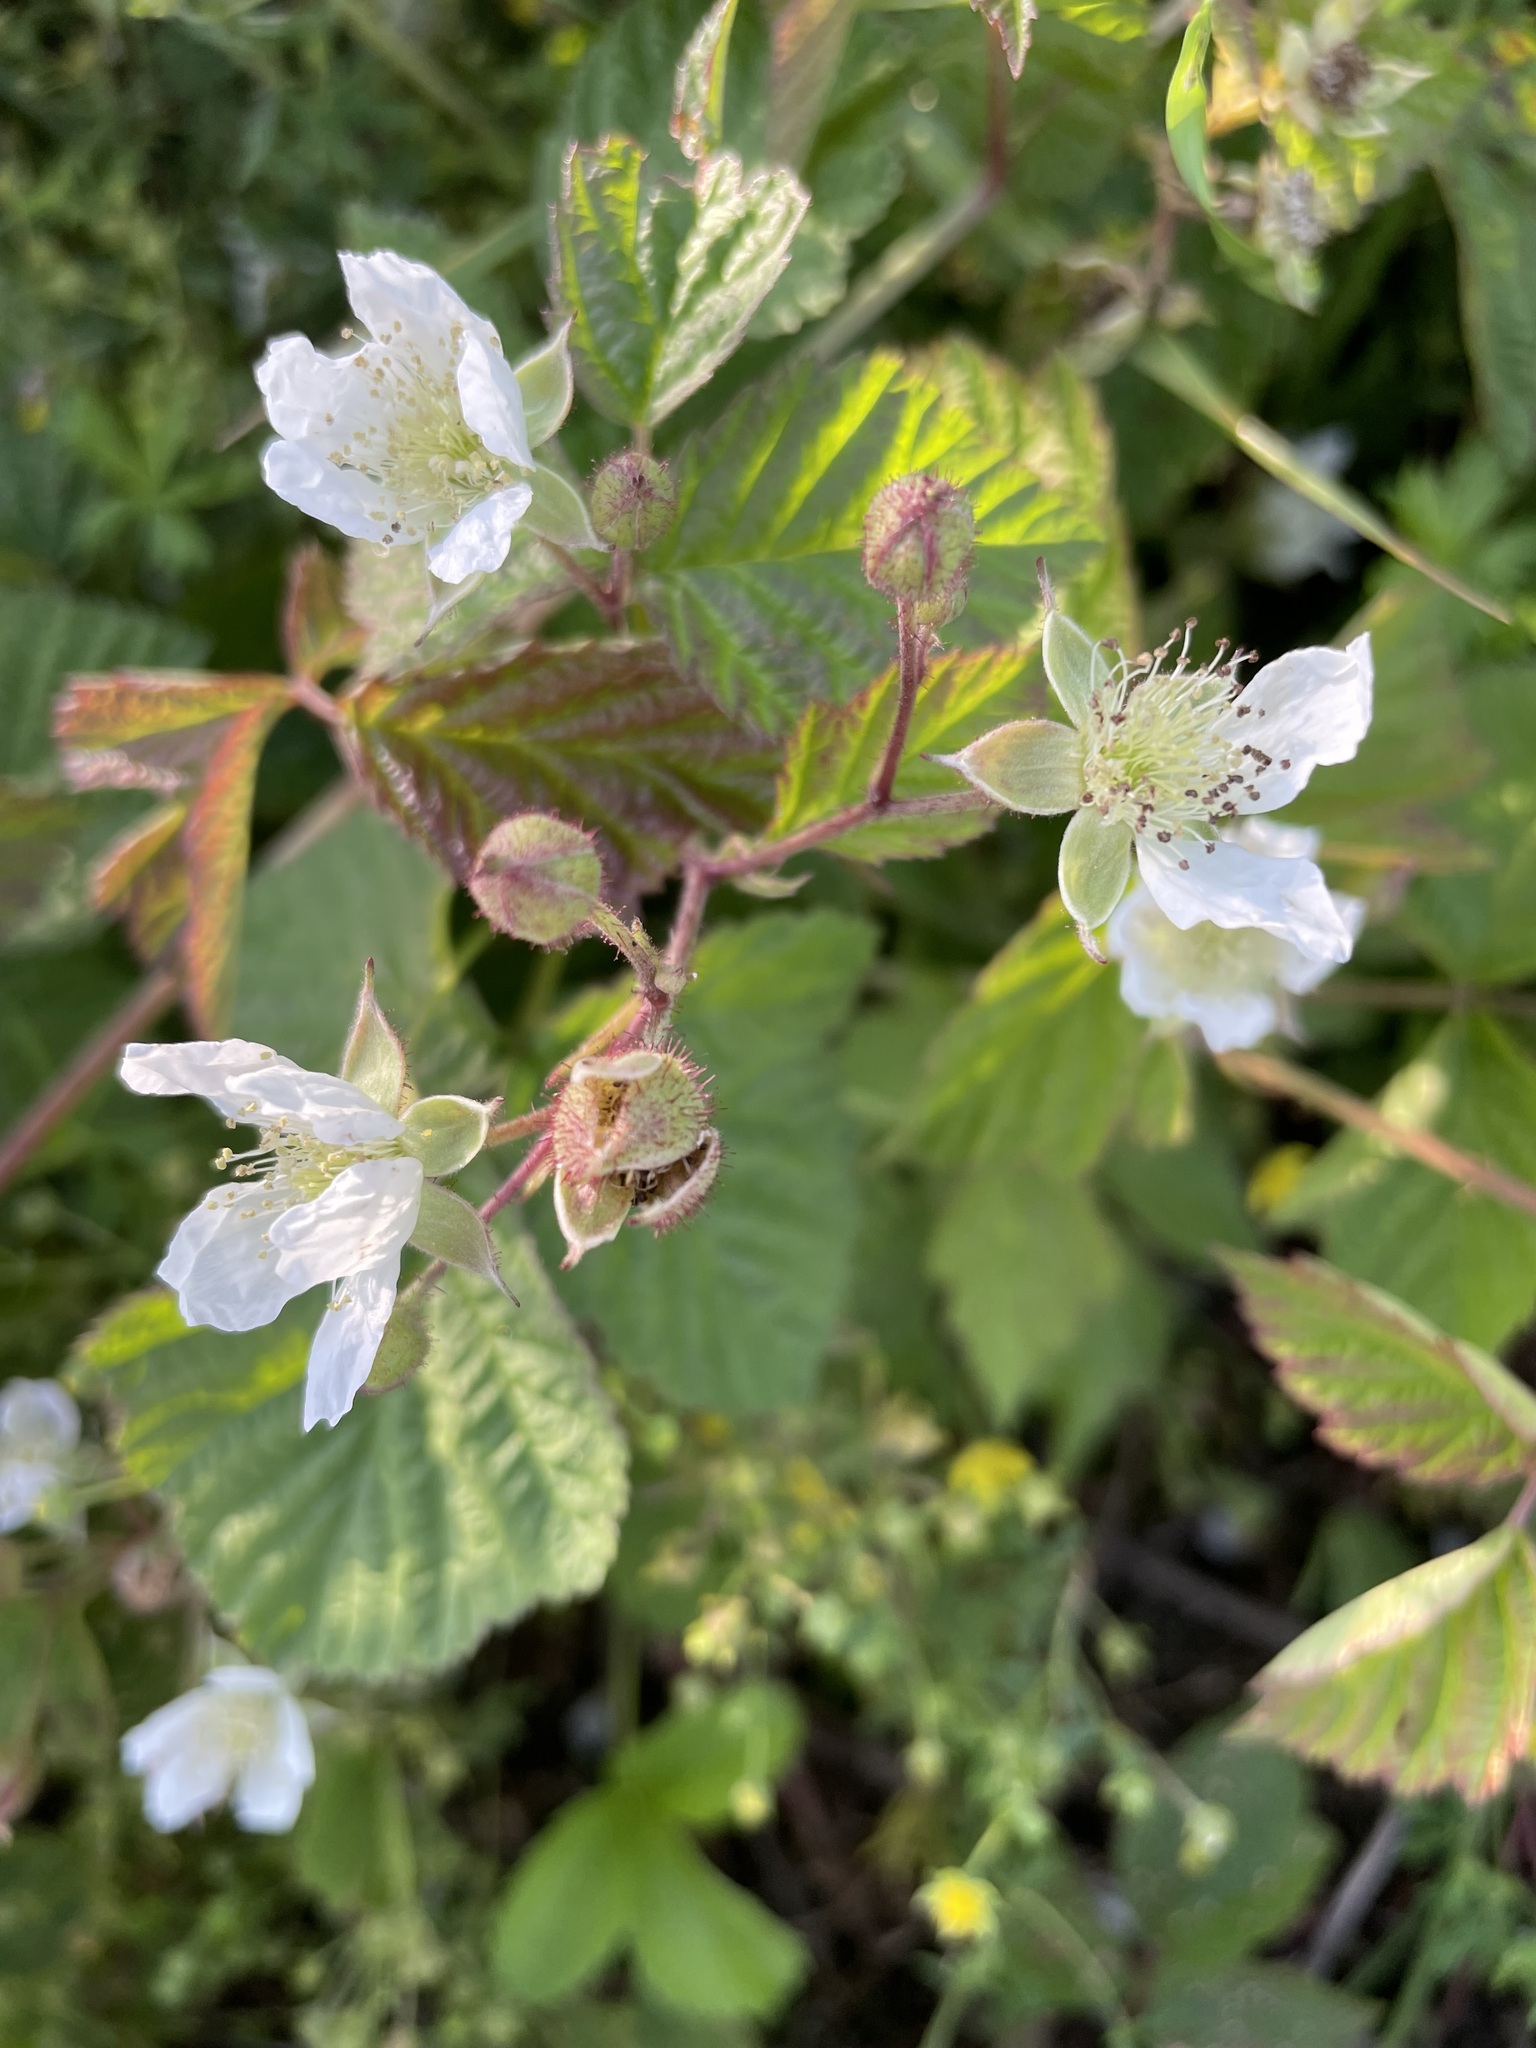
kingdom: Plantae
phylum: Tracheophyta
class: Magnoliopsida
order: Rosales
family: Rosaceae
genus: Rubus
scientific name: Rubus caesius
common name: Dewberry
